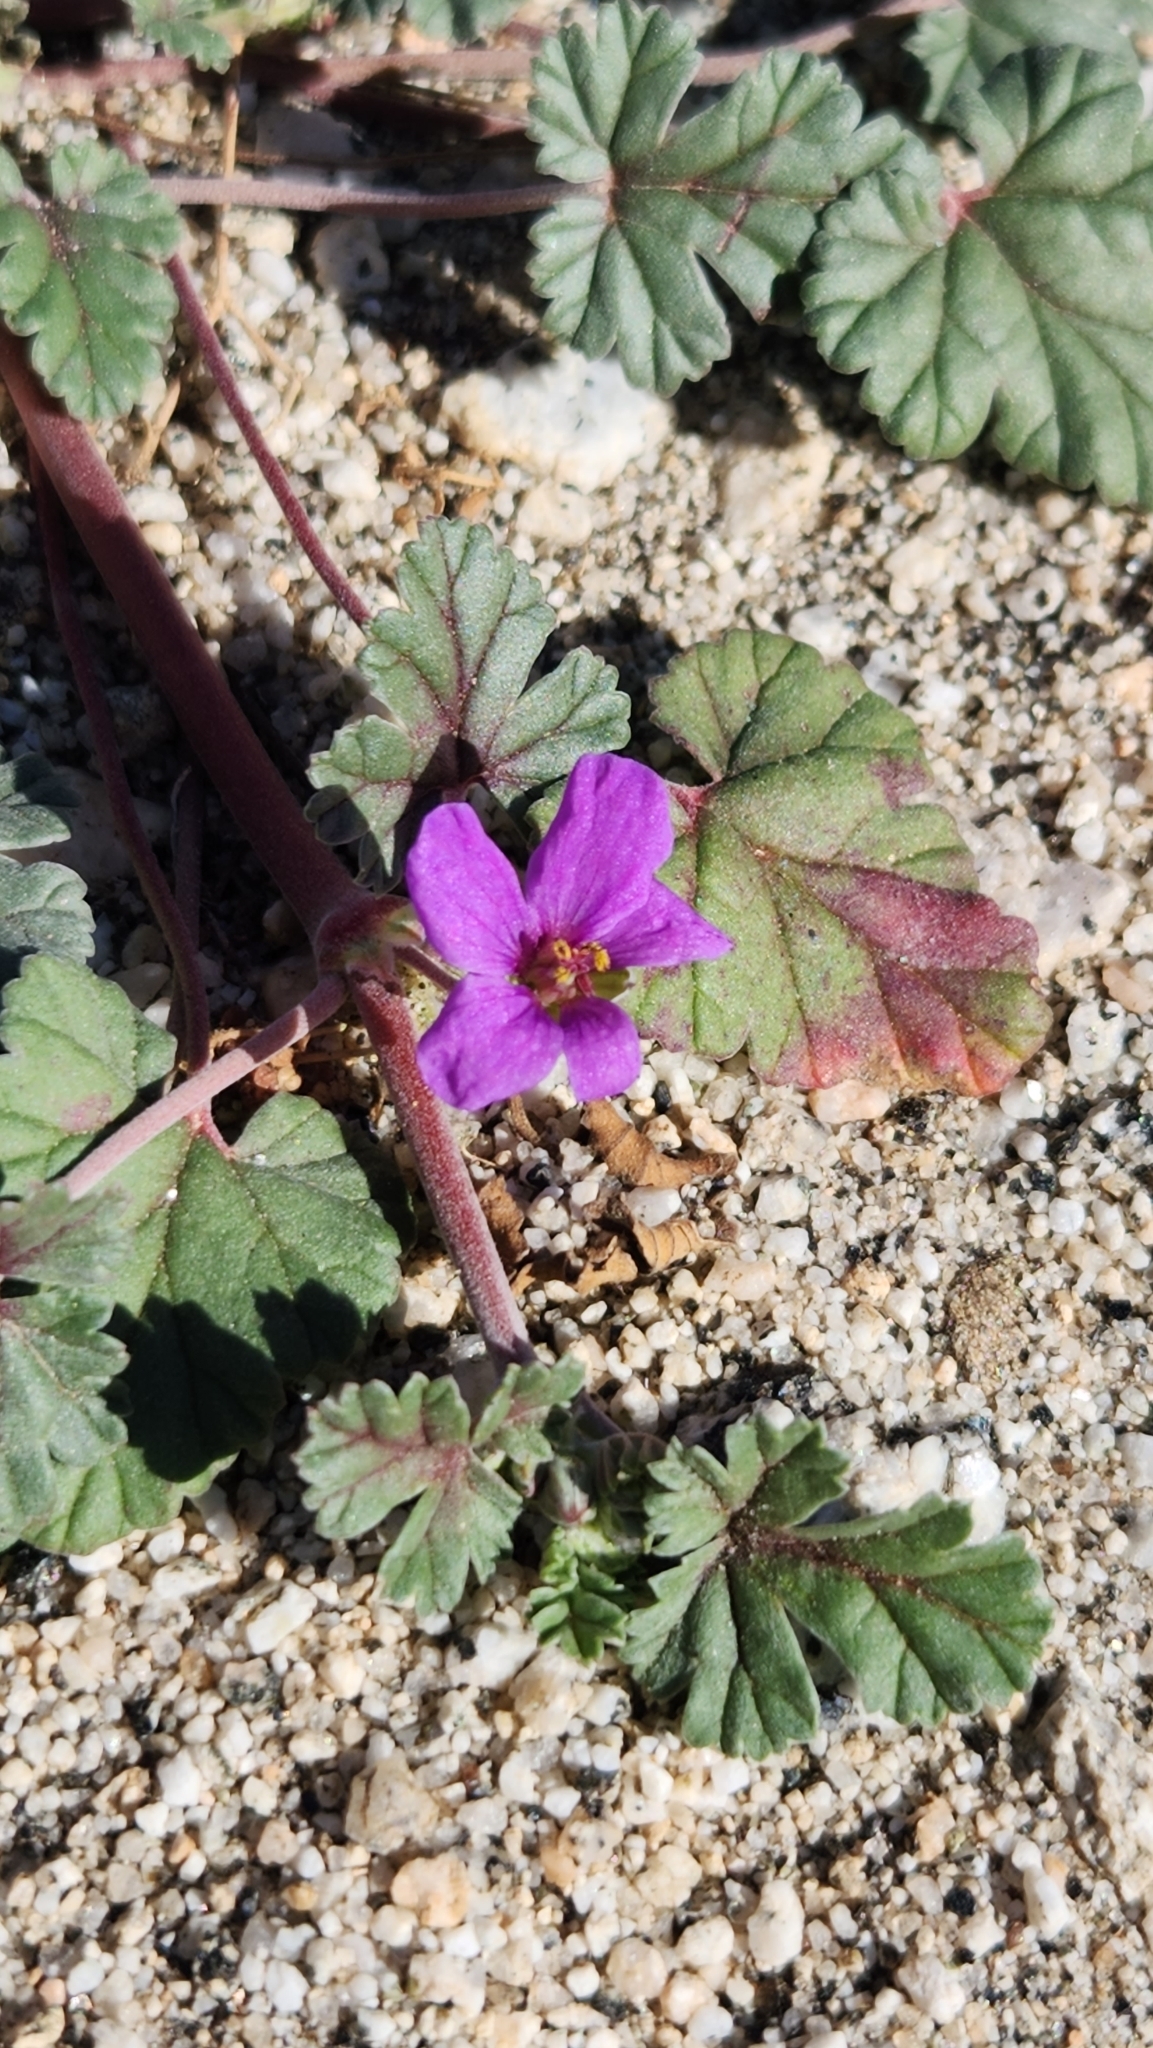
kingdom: Plantae
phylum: Tracheophyta
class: Magnoliopsida
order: Geraniales
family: Geraniaceae
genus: Erodium
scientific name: Erodium texanum
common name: Texas stork's-bill
